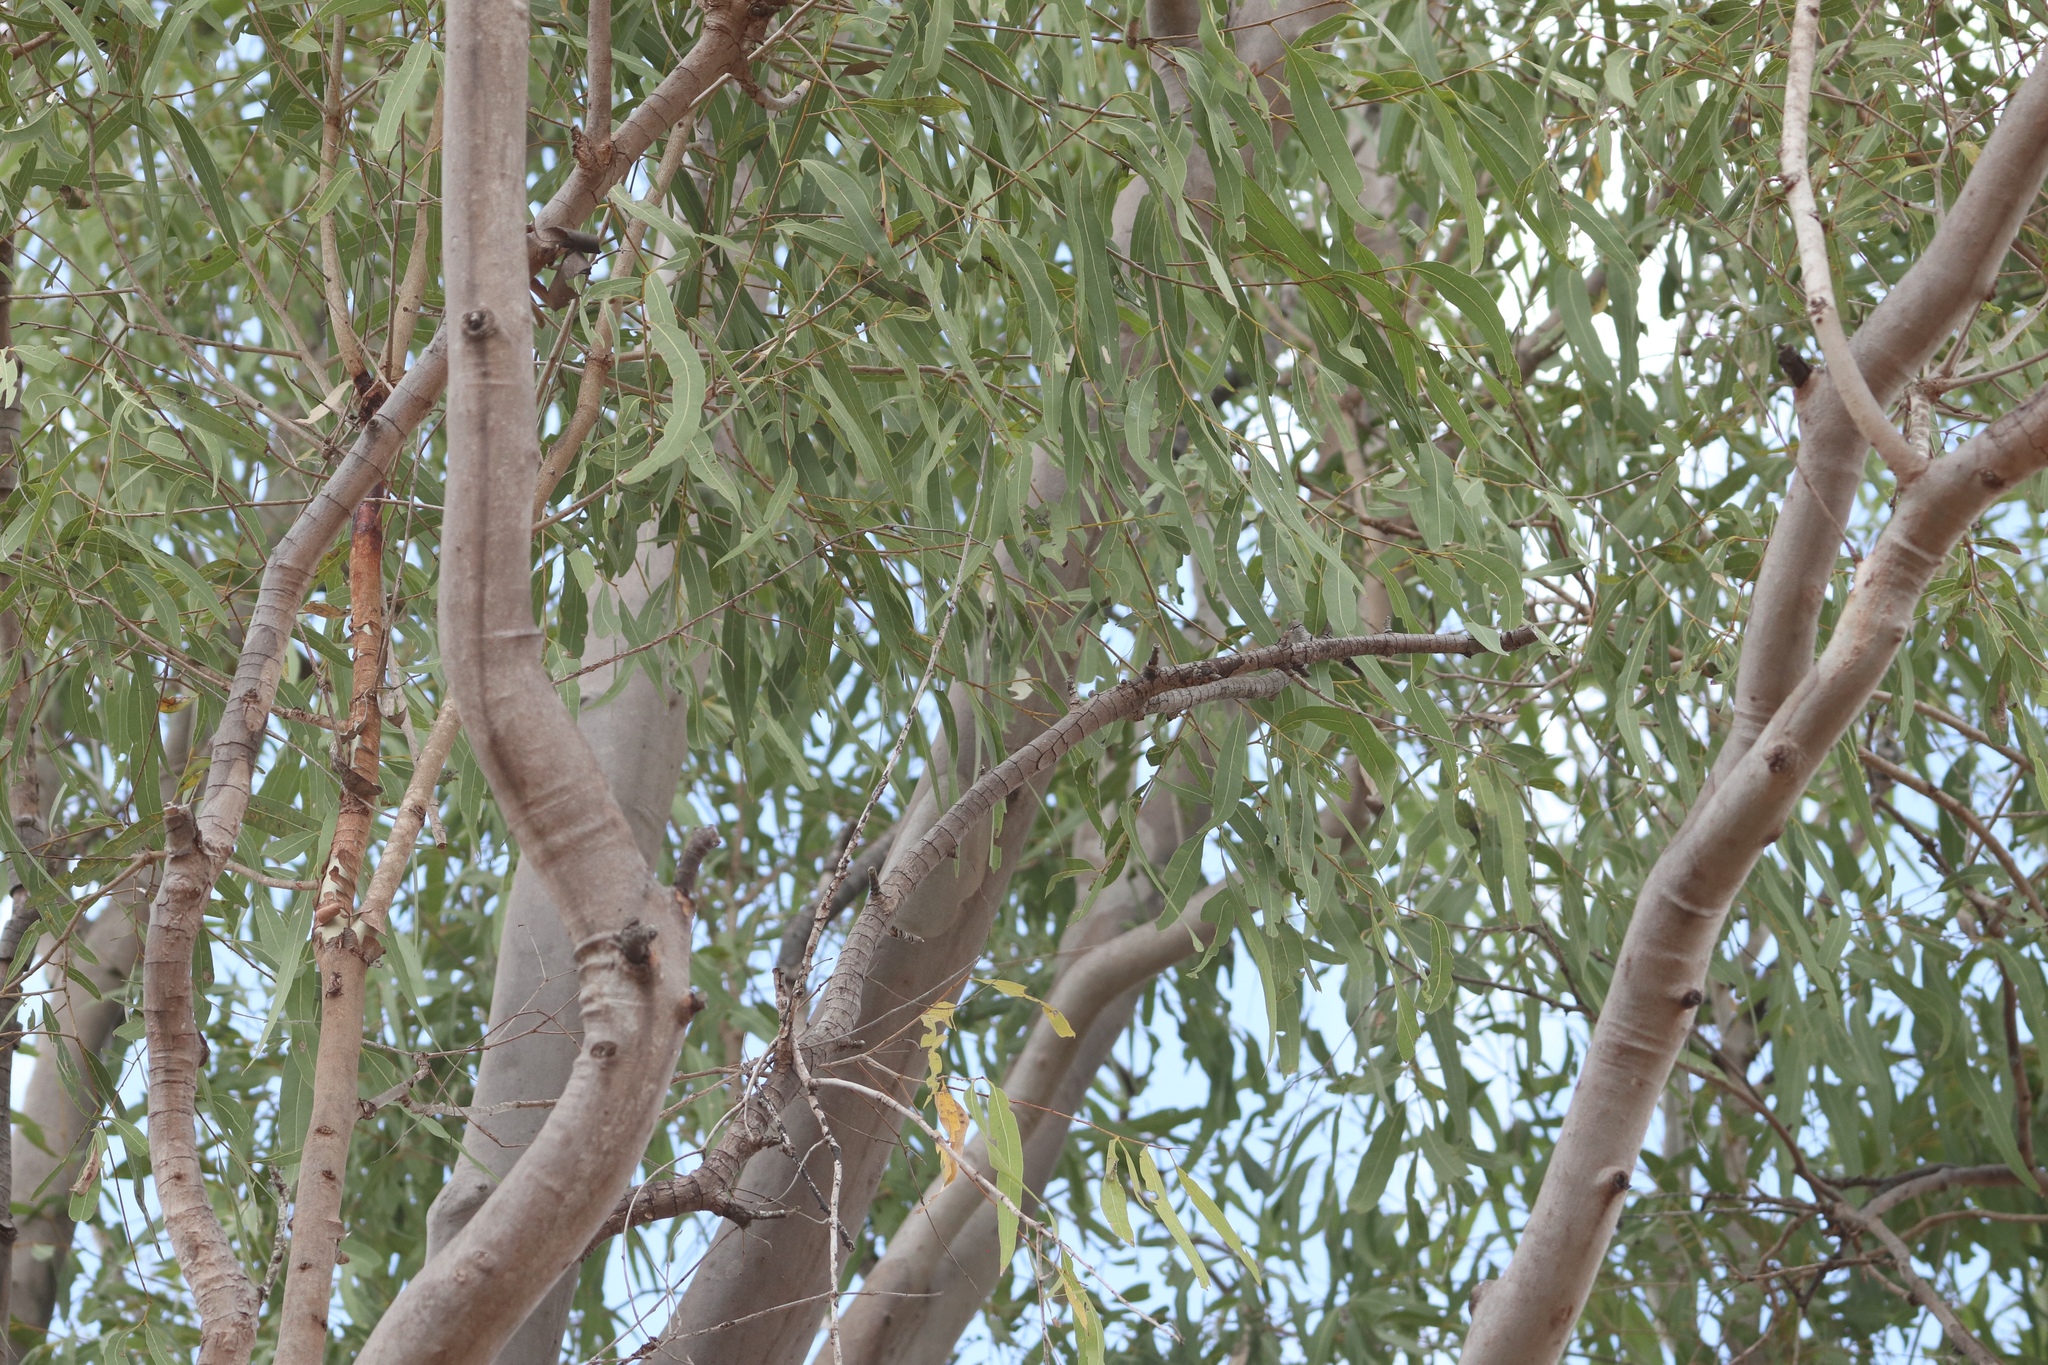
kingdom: Plantae
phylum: Tracheophyta
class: Magnoliopsida
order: Myrtales
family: Myrtaceae
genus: Corymbia
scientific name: Corymbia tessellaris
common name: Carbeen
